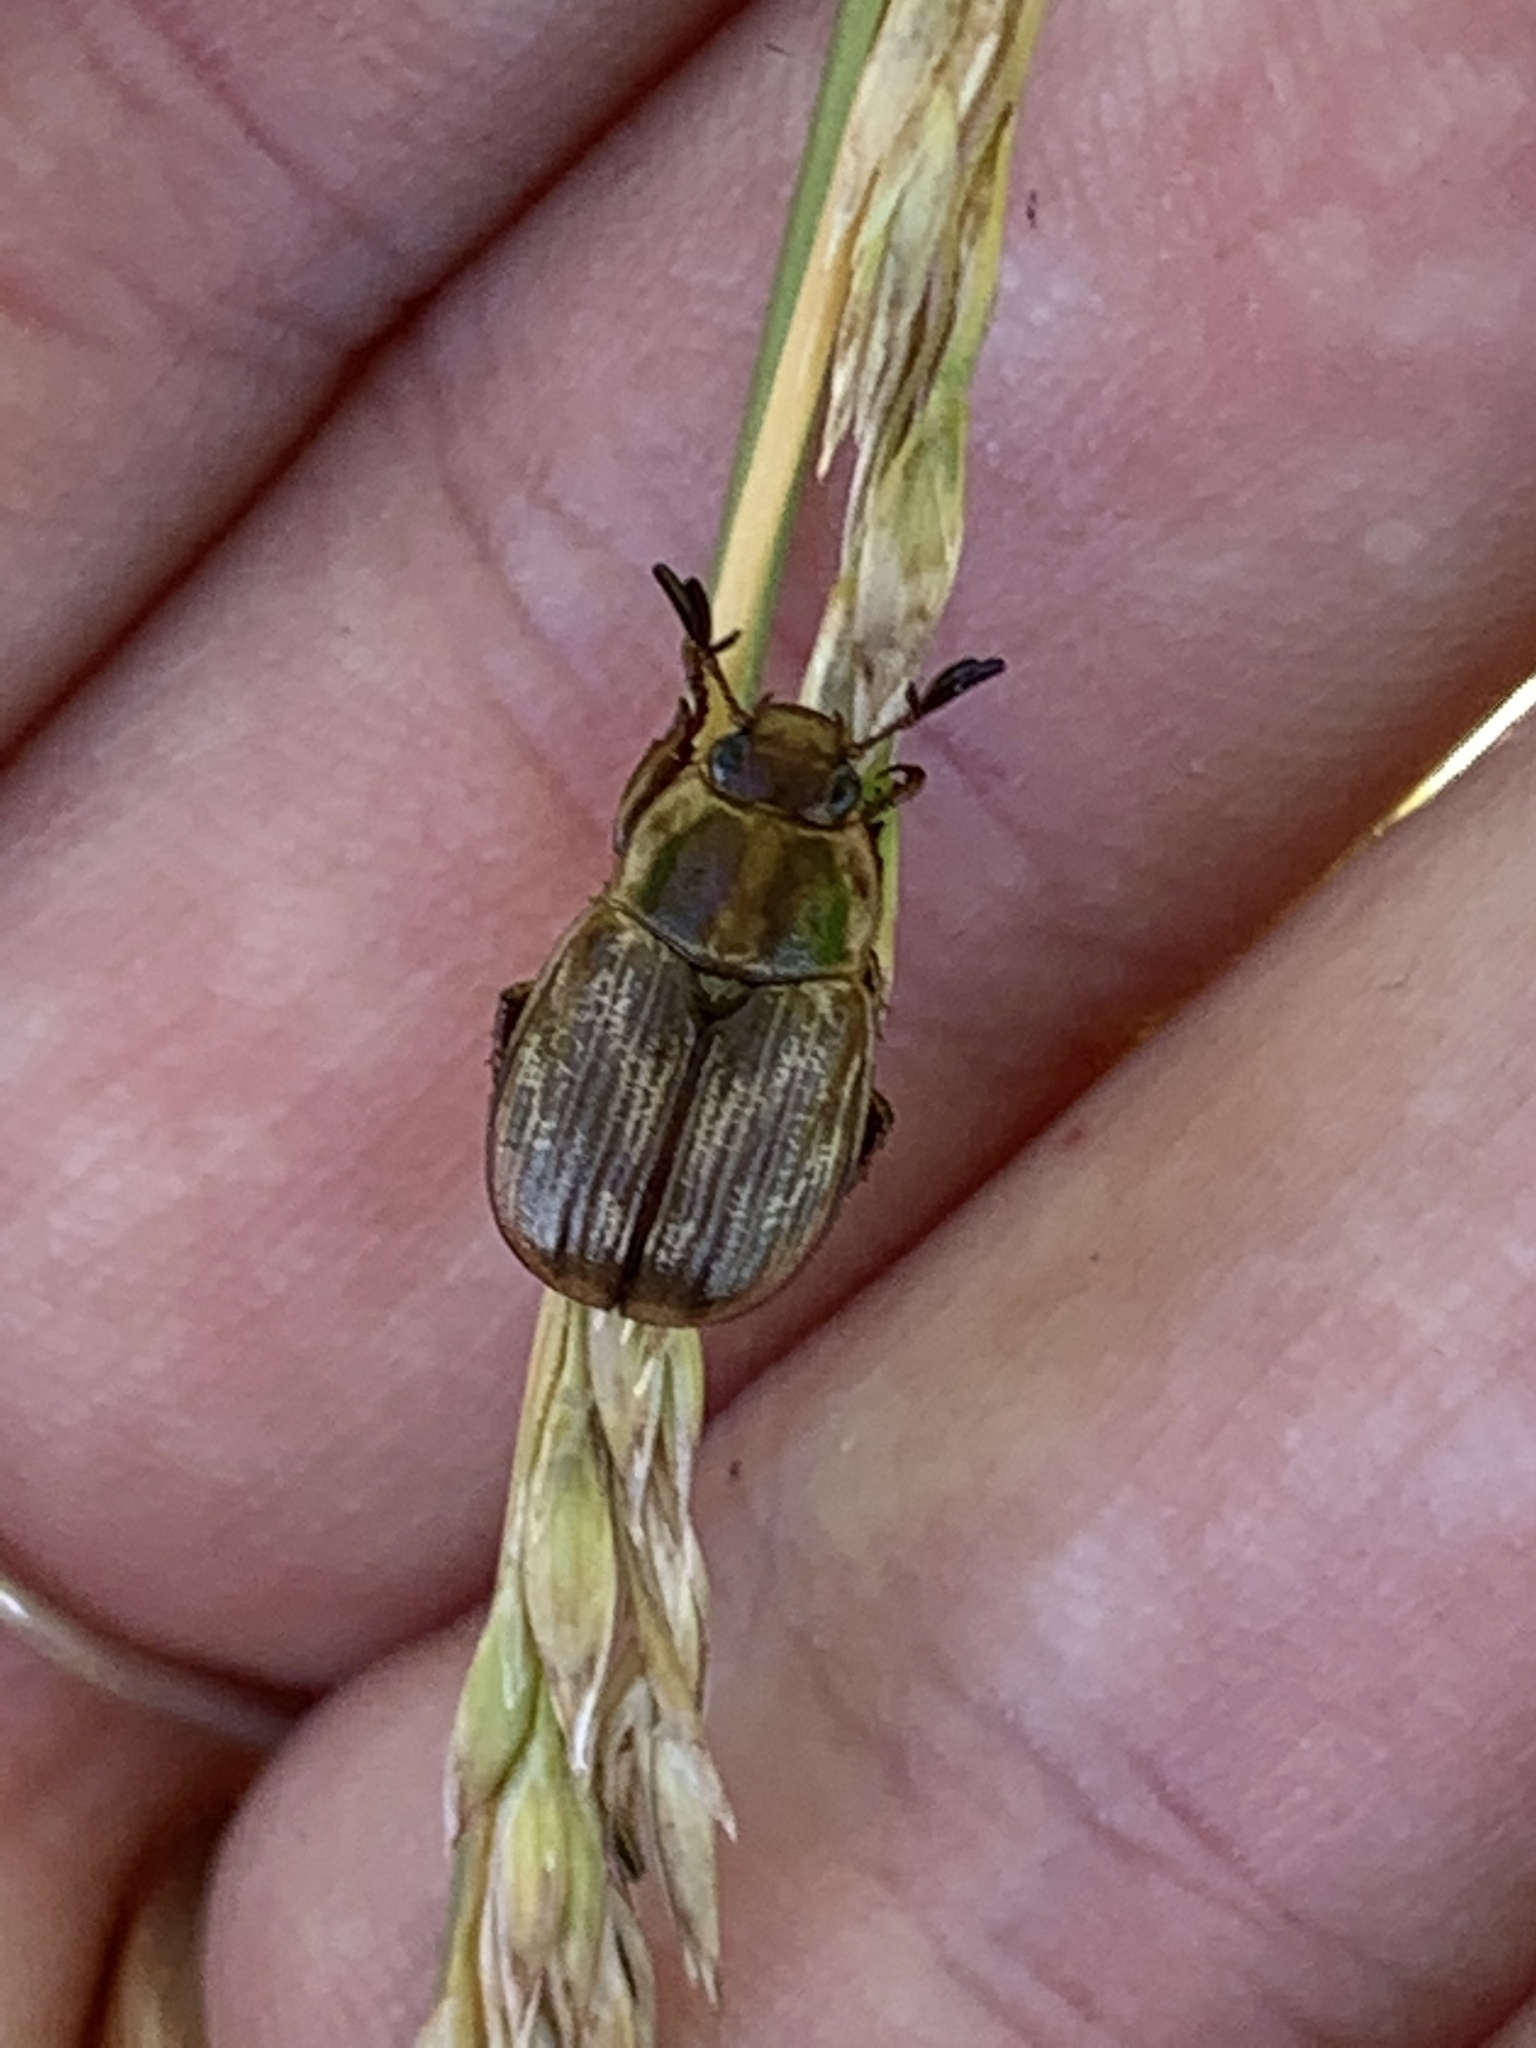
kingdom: Animalia
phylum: Arthropoda
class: Insecta
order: Coleoptera
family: Scarabaeidae
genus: Exomala
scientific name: Exomala orientalis
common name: Oriental beetle
